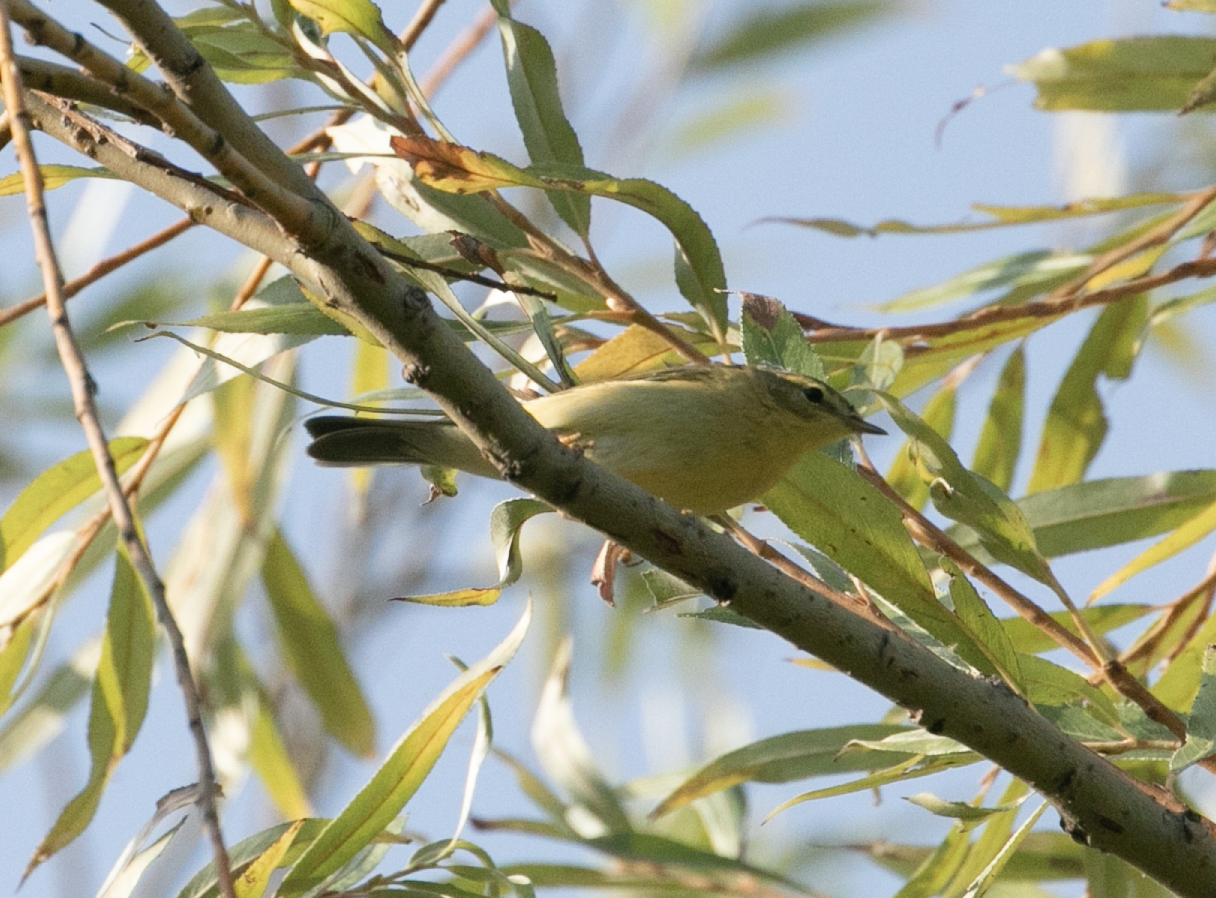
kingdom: Animalia
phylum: Chordata
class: Aves
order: Passeriformes
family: Phylloscopidae
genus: Phylloscopus
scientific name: Phylloscopus trochilus
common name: Willow warbler
